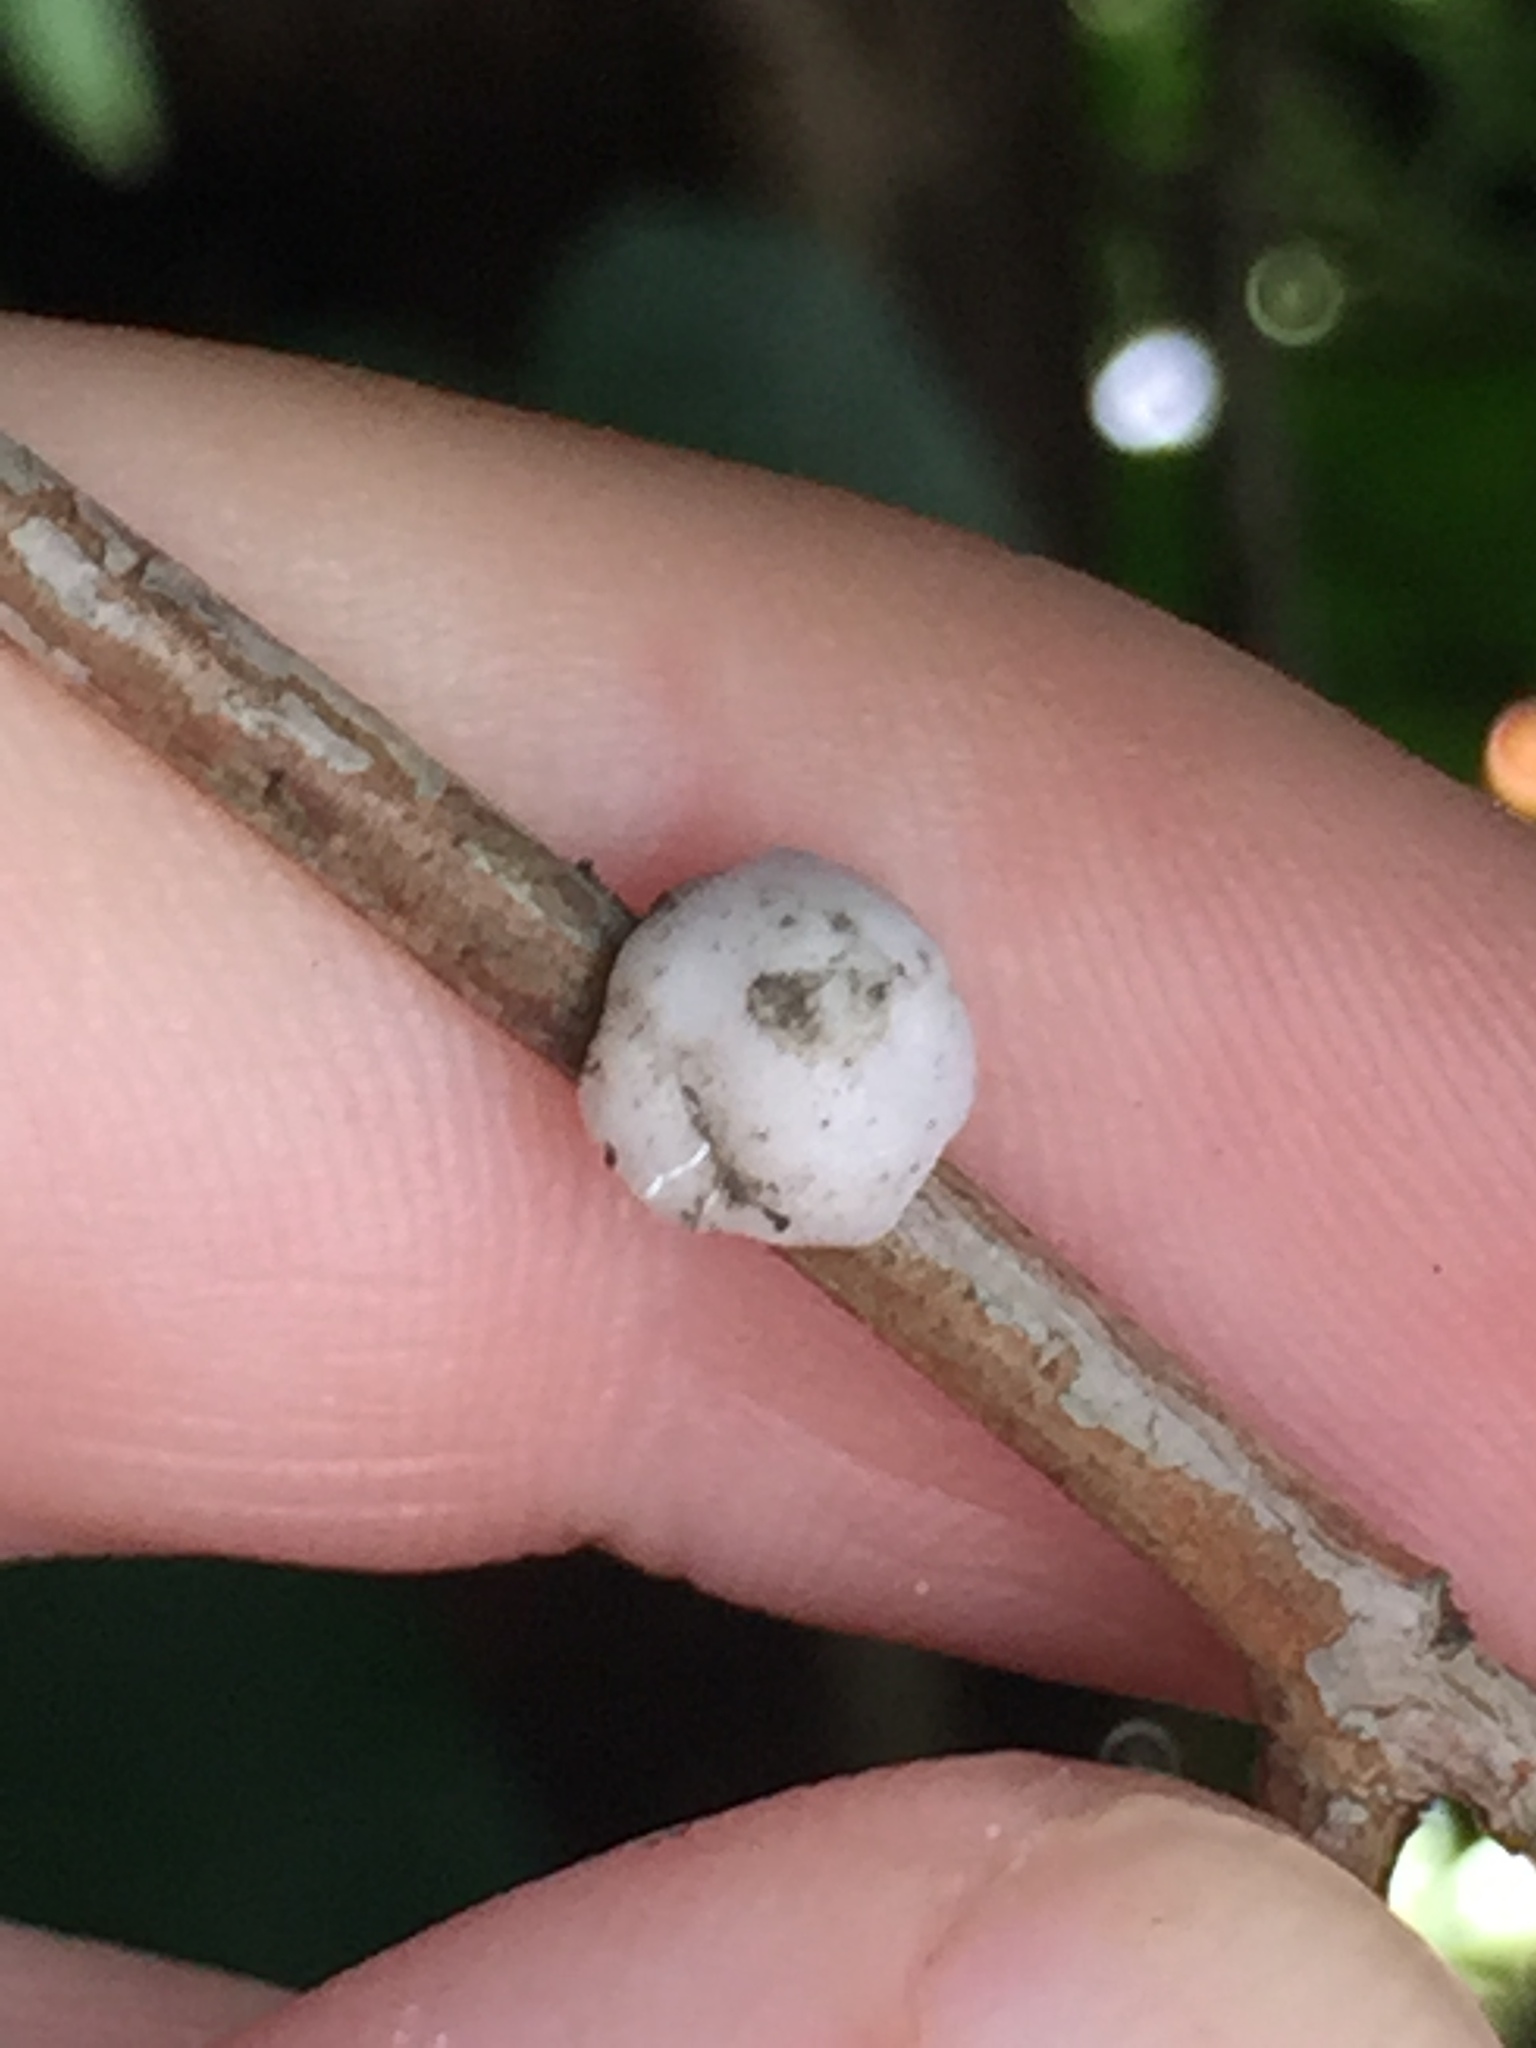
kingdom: Animalia
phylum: Arthropoda
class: Insecta
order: Hemiptera
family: Coccidae
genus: Ceroplastes
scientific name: Ceroplastes destructor
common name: Indian wax scale
